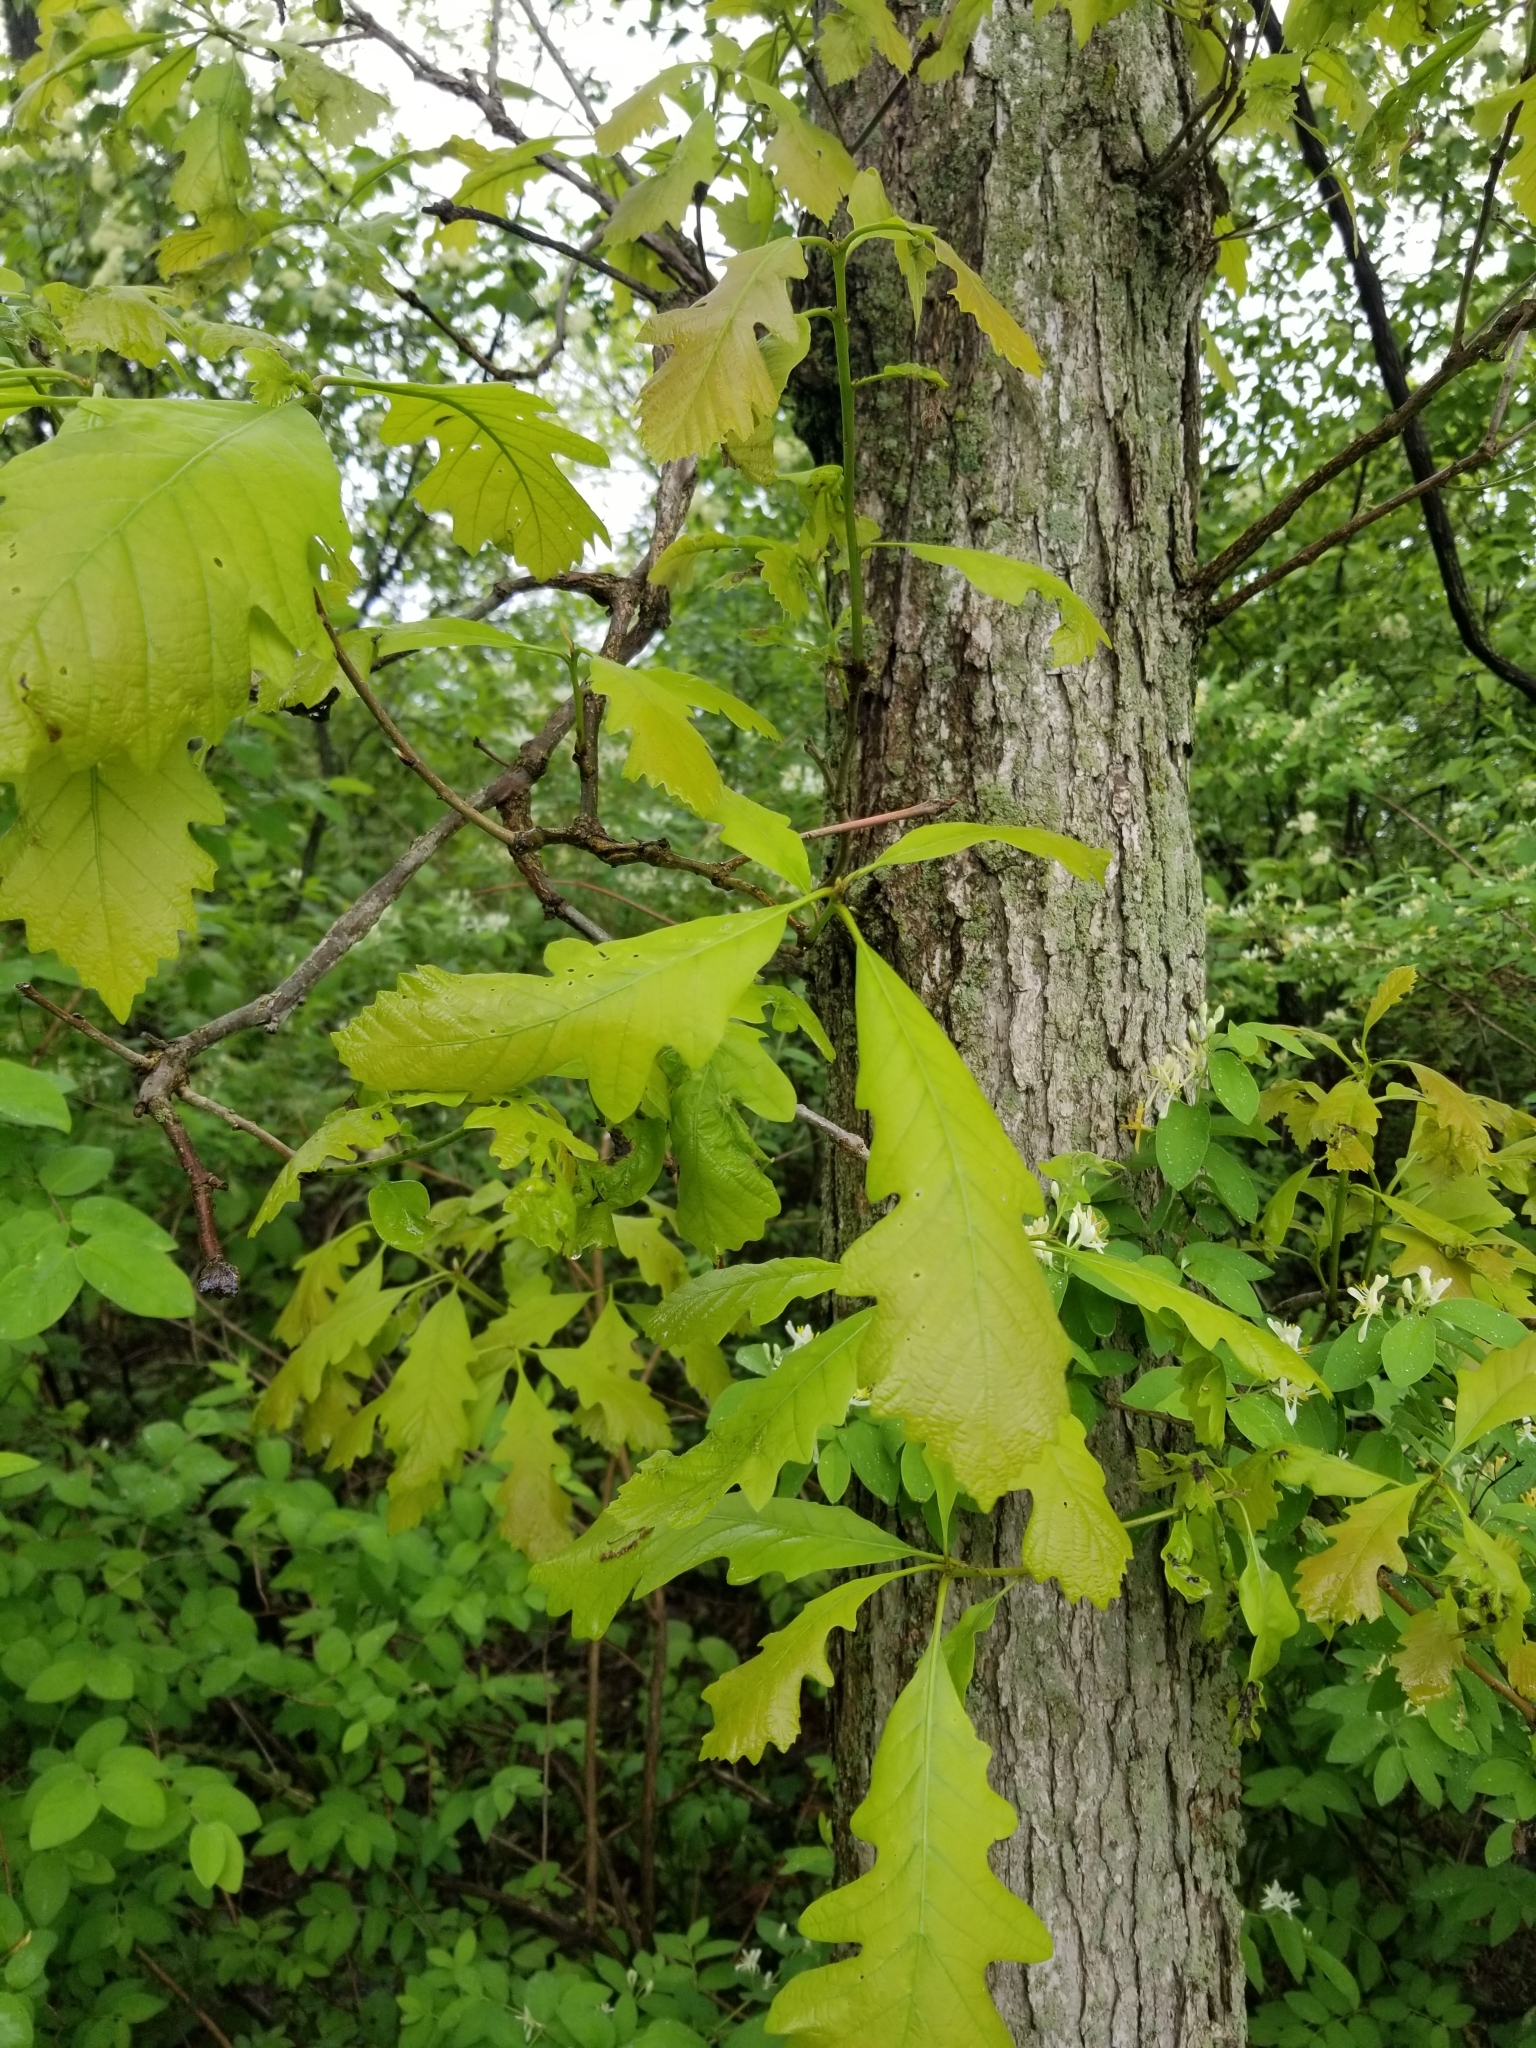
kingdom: Plantae
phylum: Tracheophyta
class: Magnoliopsida
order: Fagales
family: Fagaceae
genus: Quercus
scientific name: Quercus bicolor
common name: Swamp white oak
